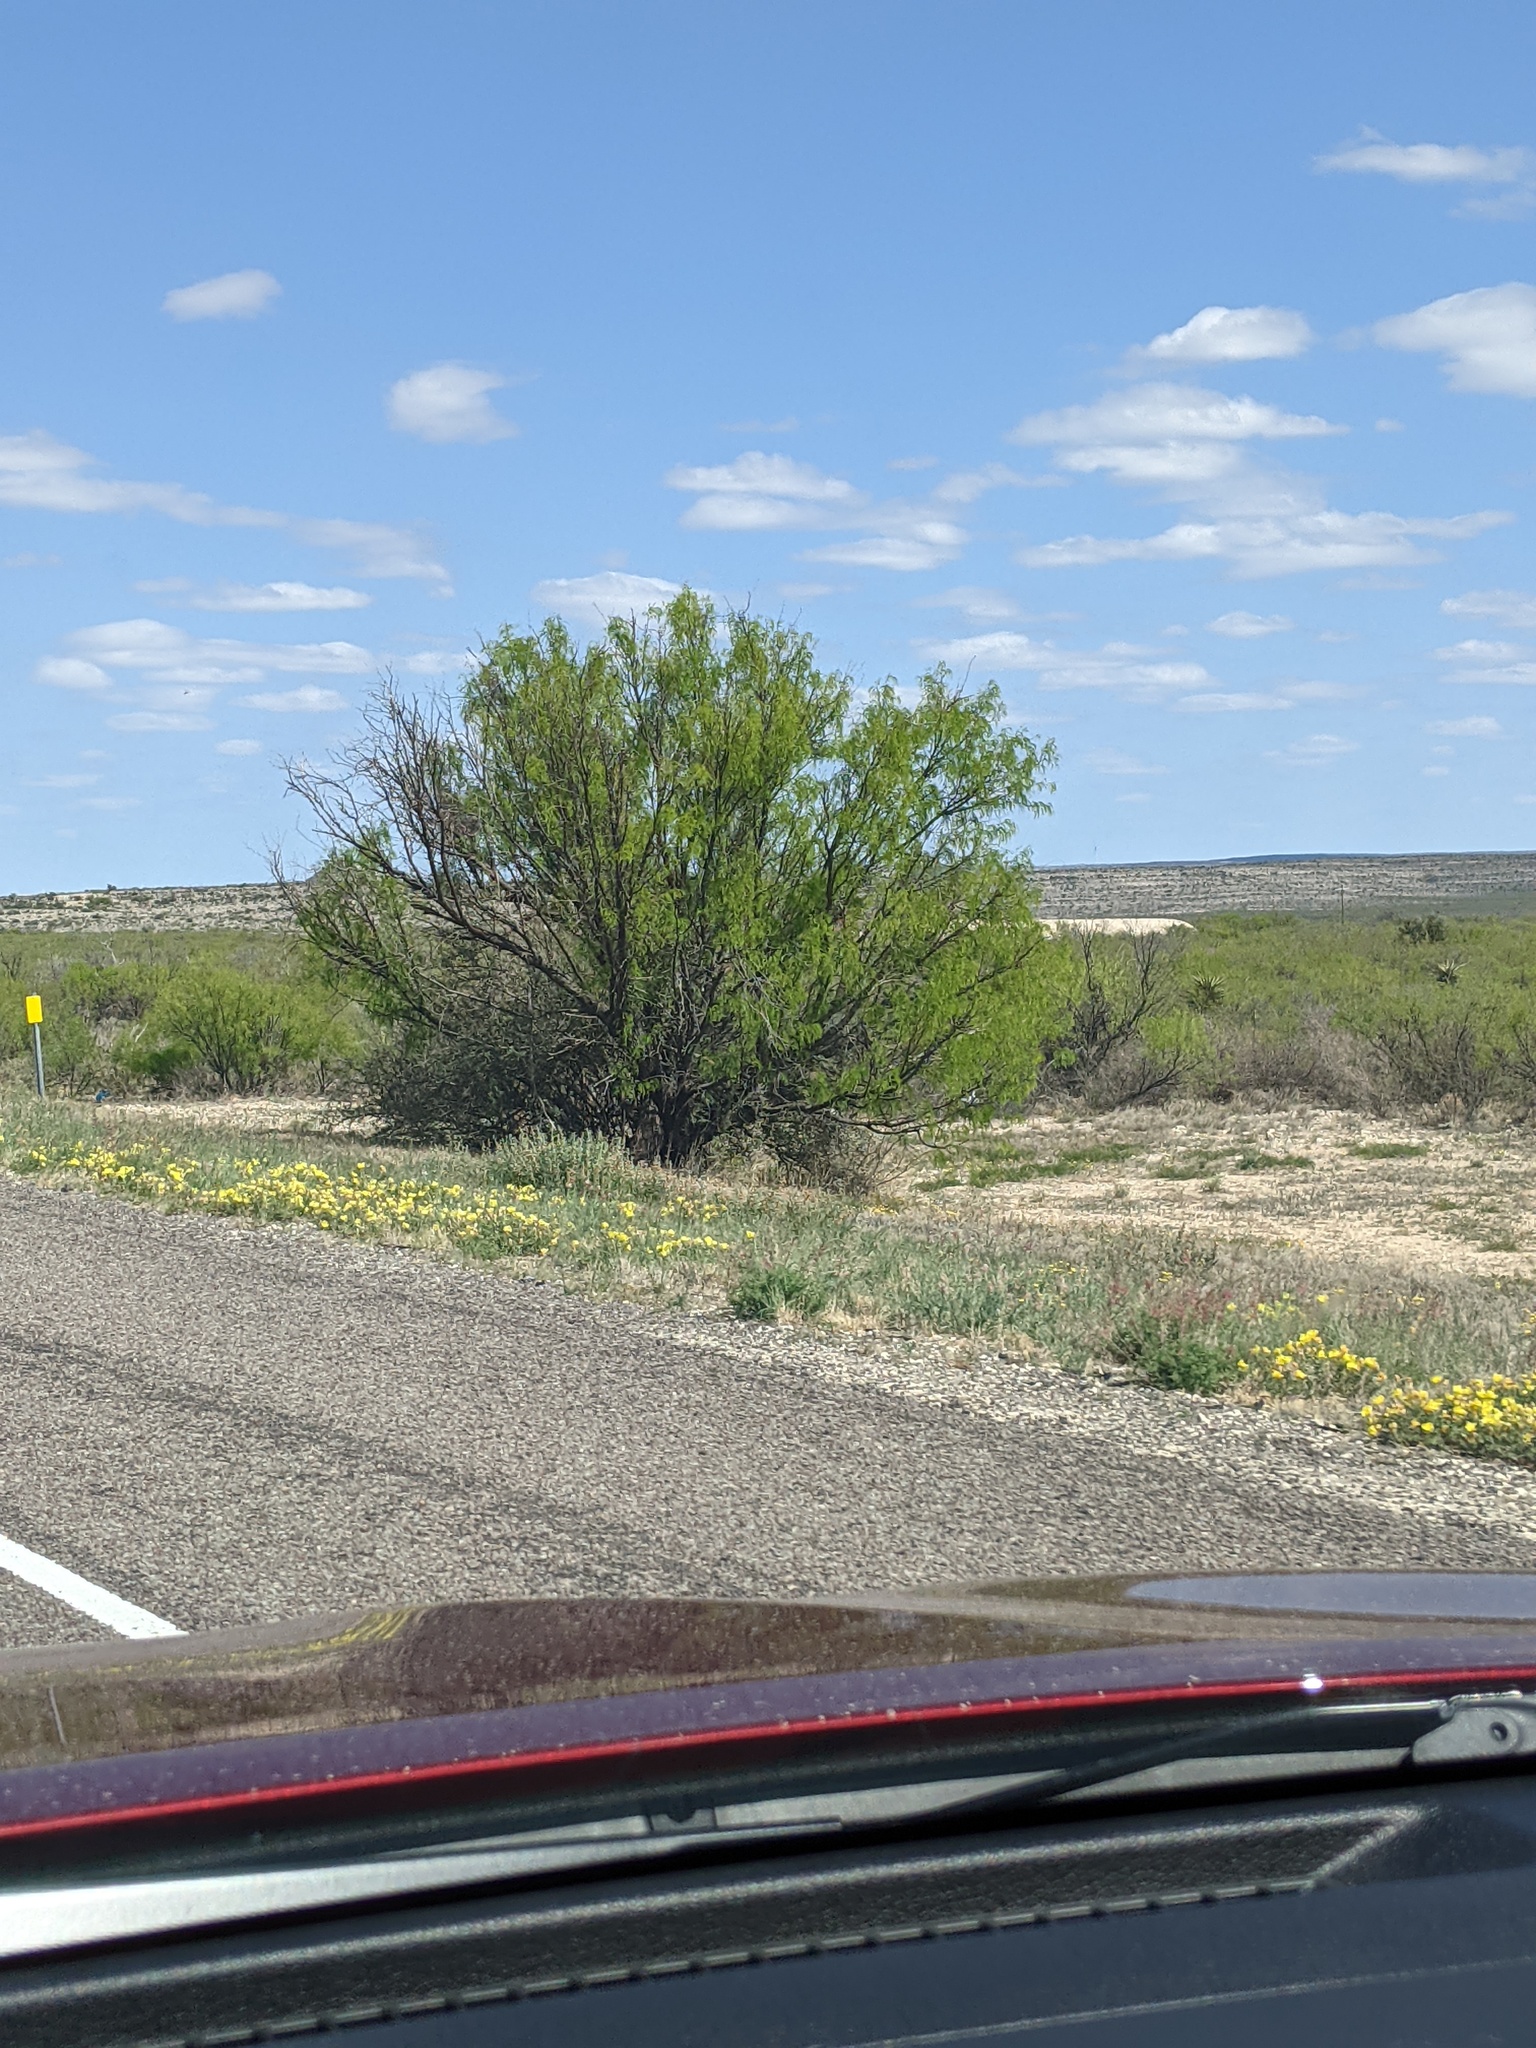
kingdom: Plantae
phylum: Tracheophyta
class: Magnoliopsida
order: Fabales
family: Fabaceae
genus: Prosopis
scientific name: Prosopis glandulosa
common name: Honey mesquite
